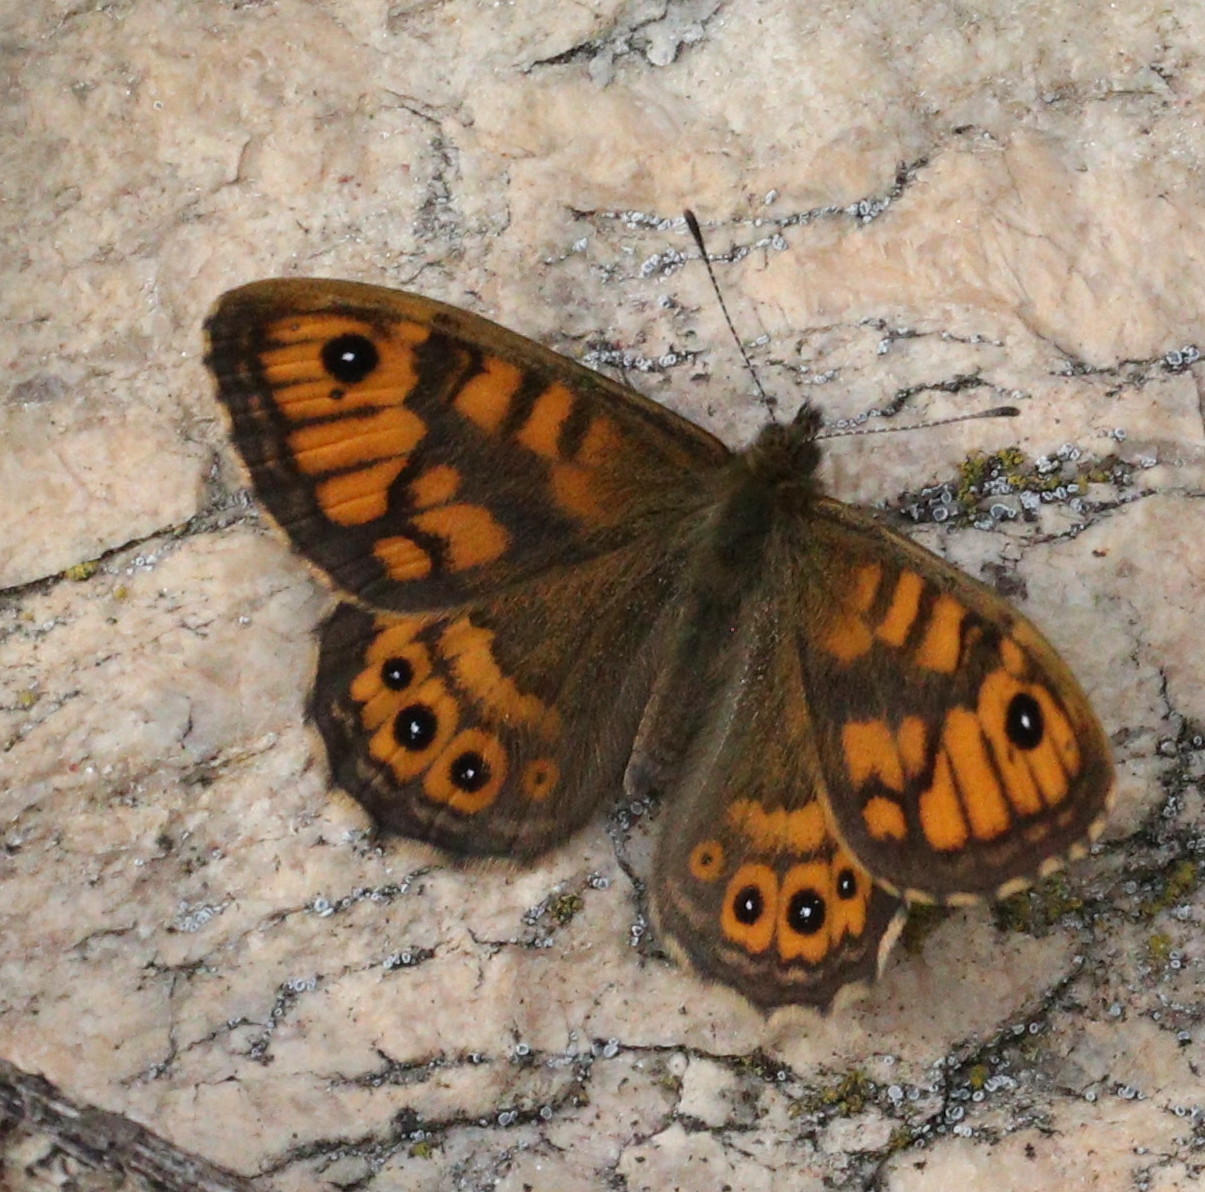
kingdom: Animalia
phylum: Arthropoda
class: Insecta
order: Lepidoptera
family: Nymphalidae
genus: Pararge
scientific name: Pararge Lasiommata megera
